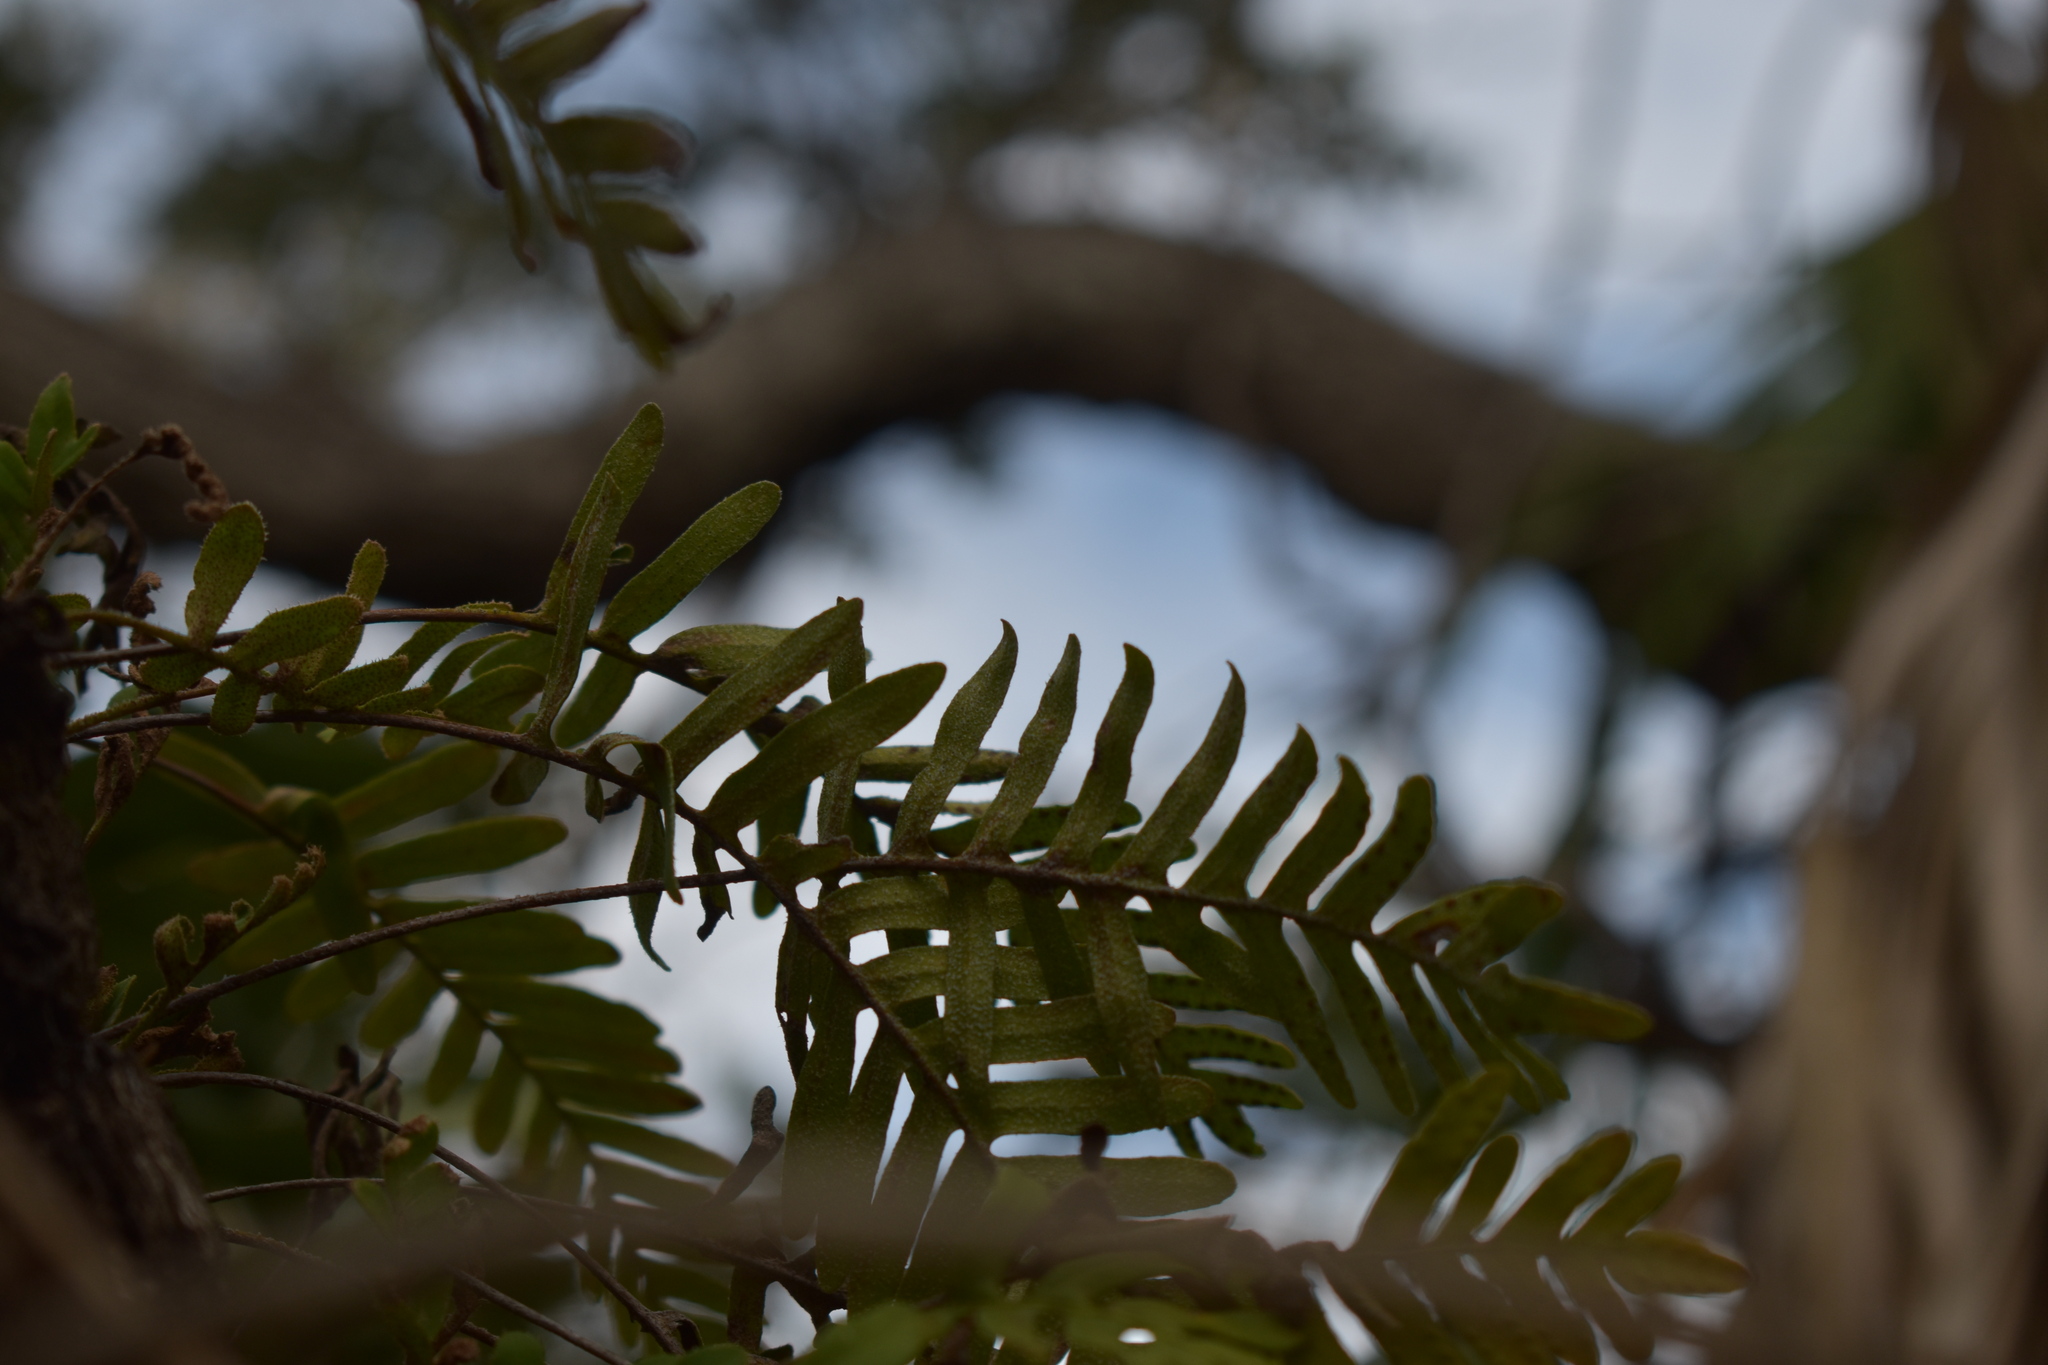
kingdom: Plantae
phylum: Tracheophyta
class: Polypodiopsida
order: Polypodiales
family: Polypodiaceae
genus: Pleopeltis
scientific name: Pleopeltis michauxiana
